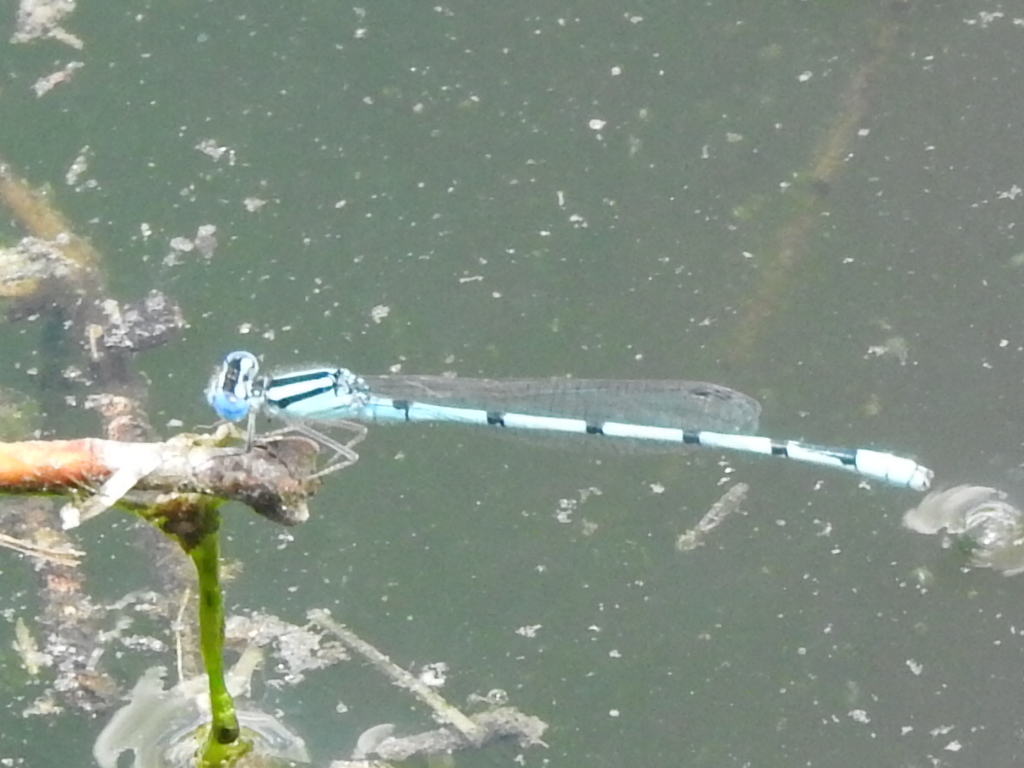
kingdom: Animalia
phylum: Arthropoda
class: Insecta
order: Odonata
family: Coenagrionidae
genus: Enallagma
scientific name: Enallagma civile
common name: Damselfly
